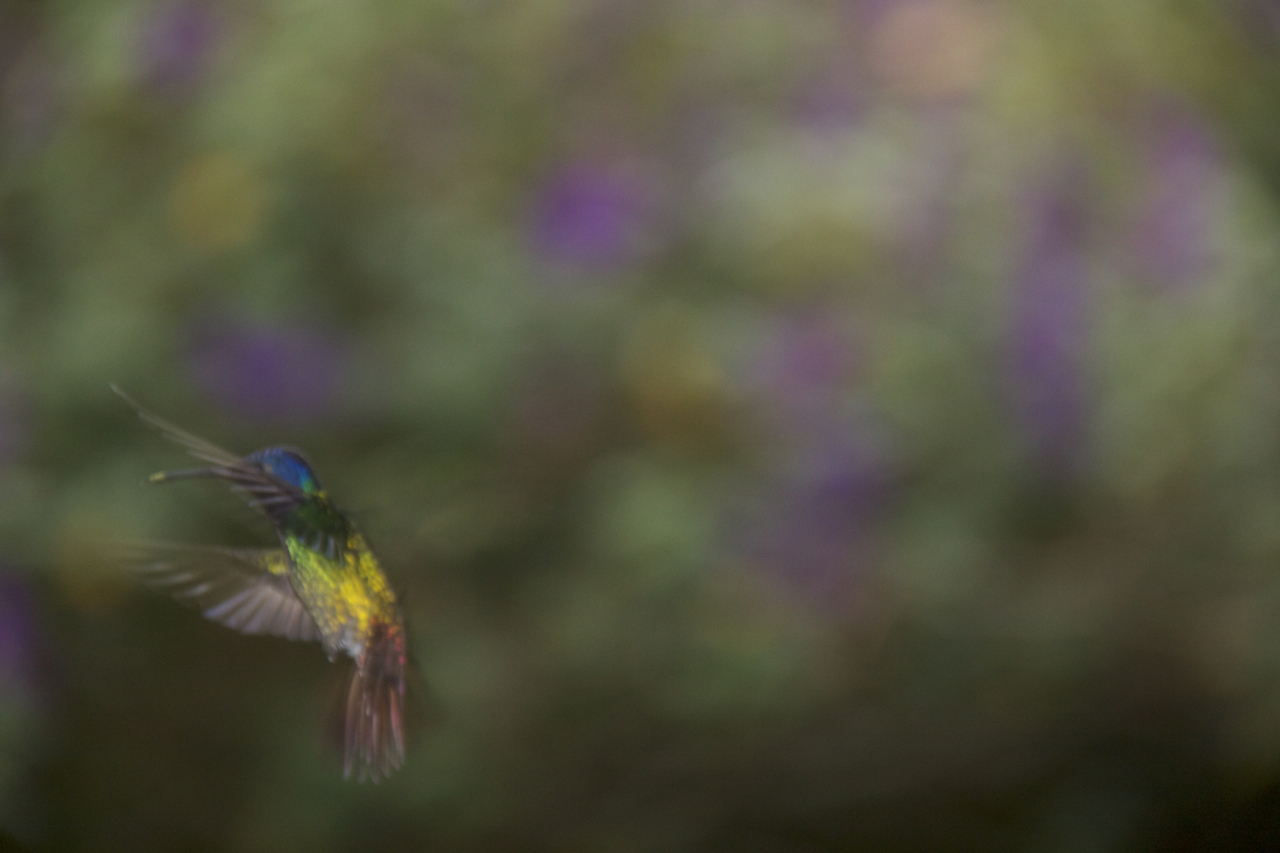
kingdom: Animalia
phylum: Chordata
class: Aves
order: Apodiformes
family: Trochilidae
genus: Chrysuronia
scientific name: Chrysuronia oenone
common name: Golden-tailed sapphire
